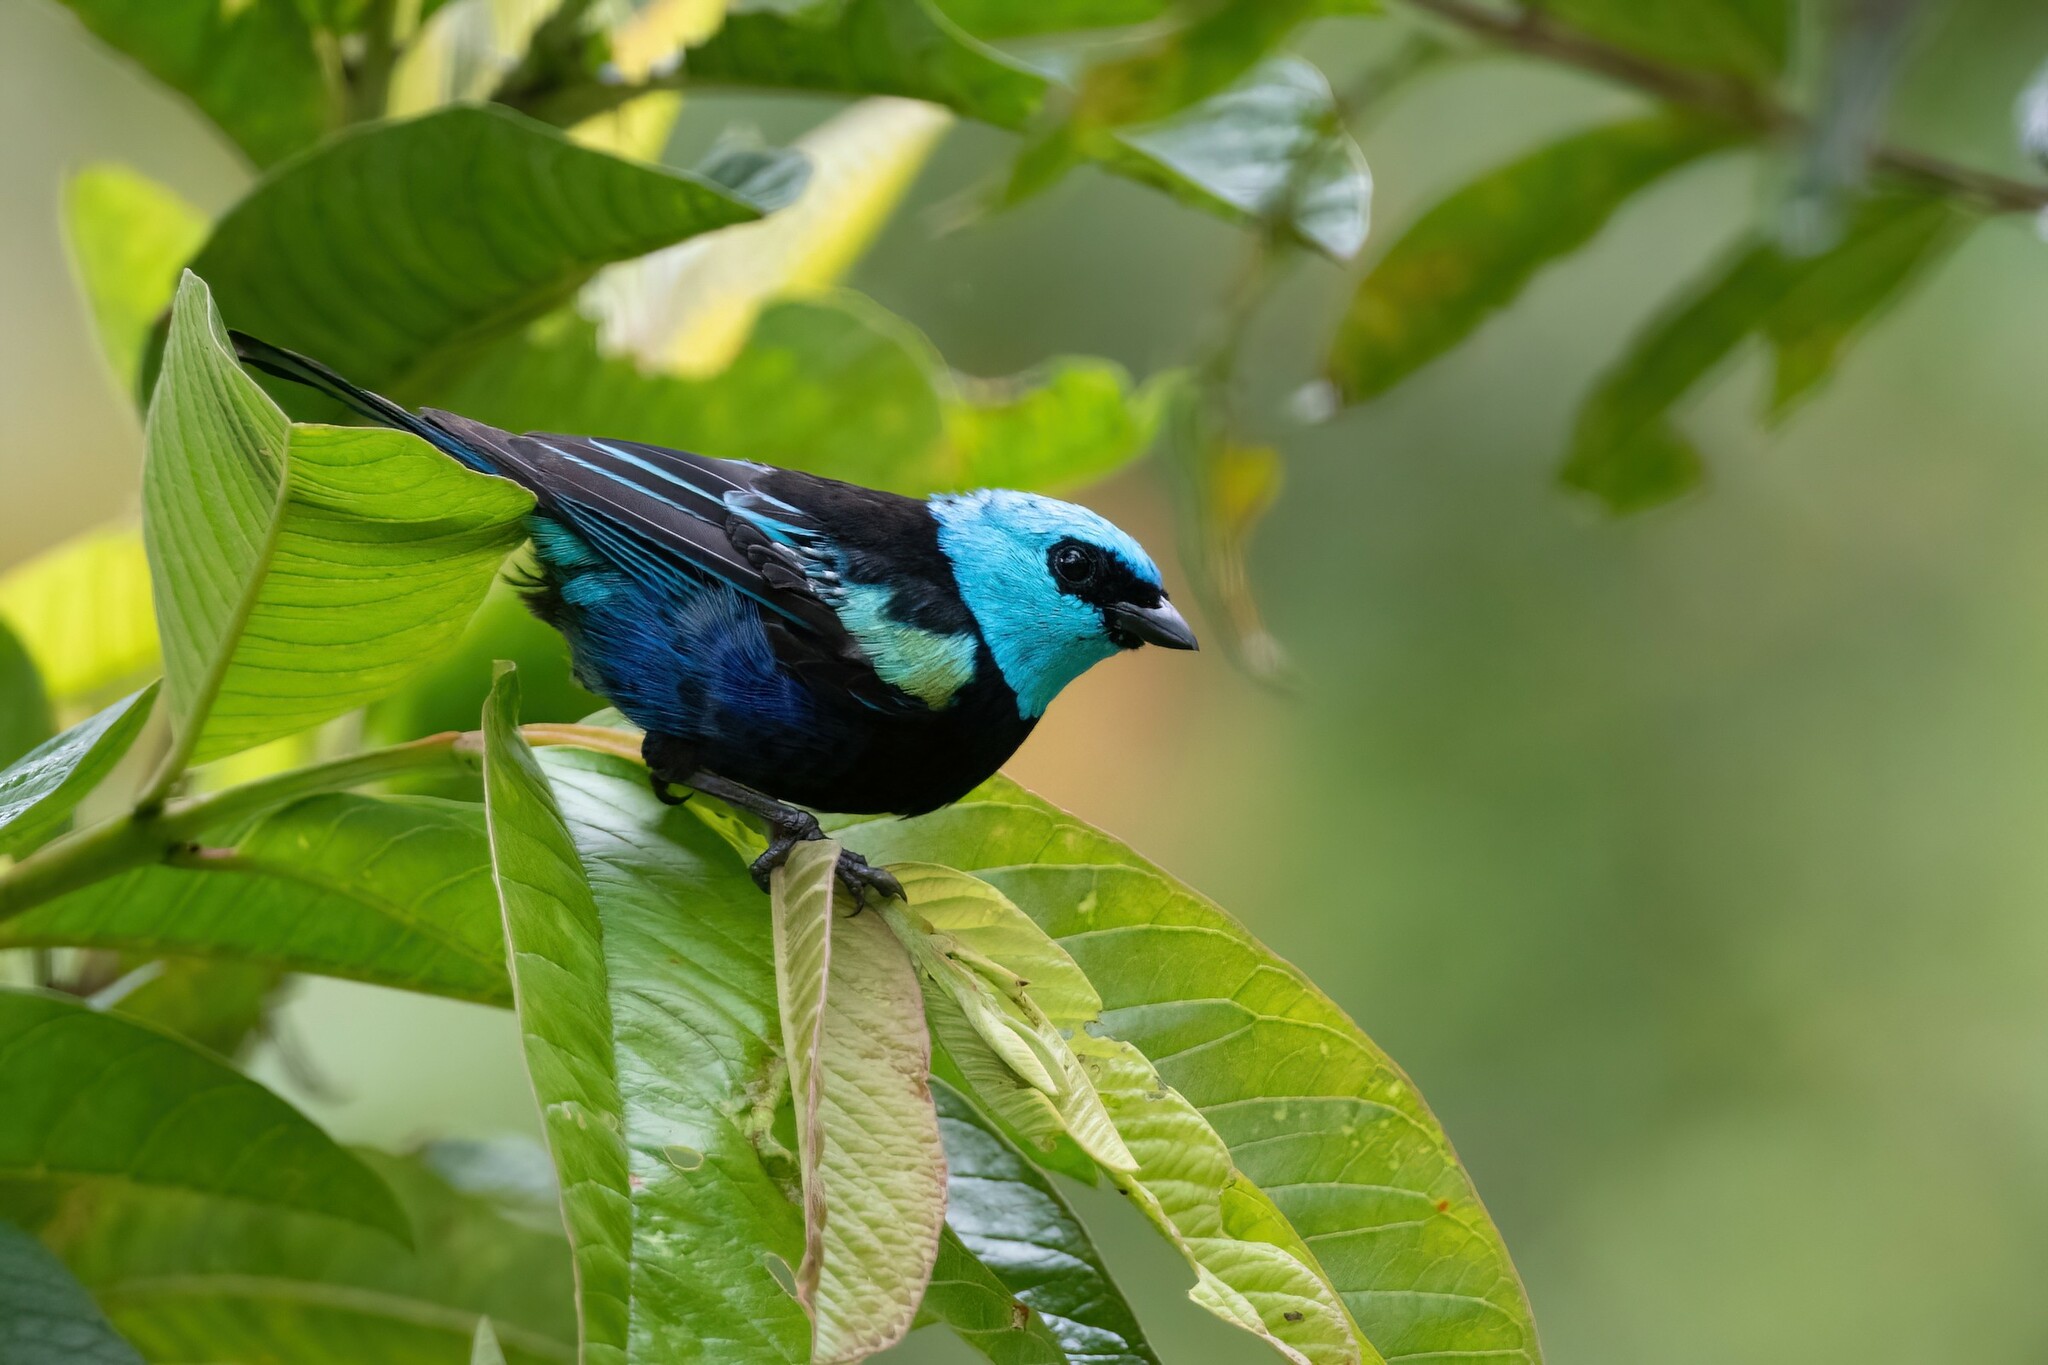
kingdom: Animalia
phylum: Chordata
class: Aves
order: Passeriformes
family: Thraupidae
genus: Stilpnia
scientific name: Stilpnia cyanicollis
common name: Blue-necked tanager
